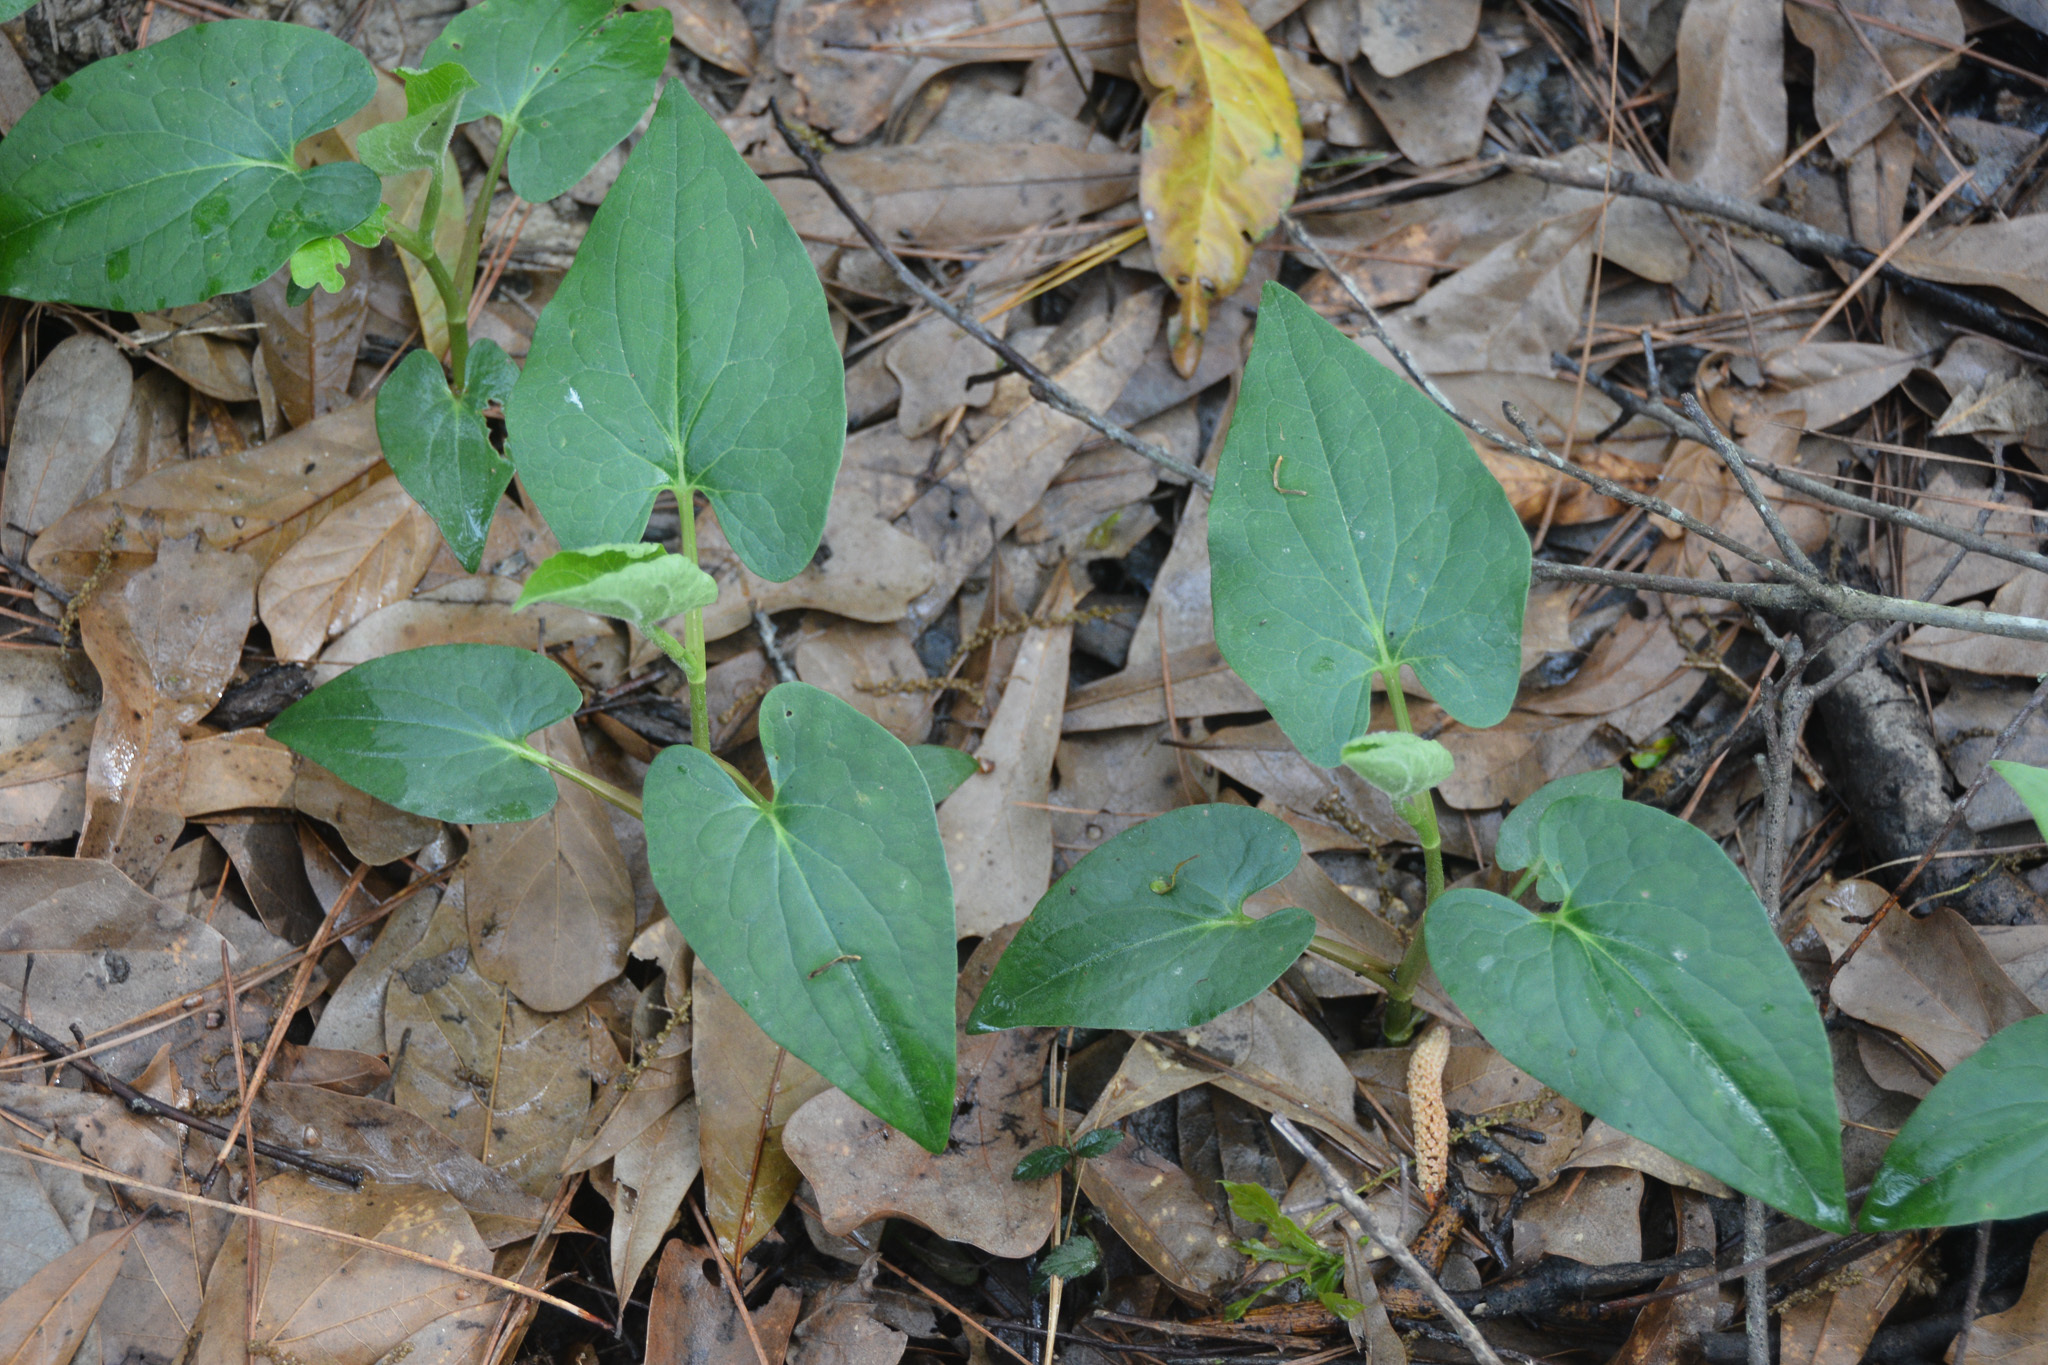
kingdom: Plantae
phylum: Tracheophyta
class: Magnoliopsida
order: Piperales
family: Saururaceae
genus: Saururus
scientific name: Saururus cernuus
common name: Lizard's-tail
